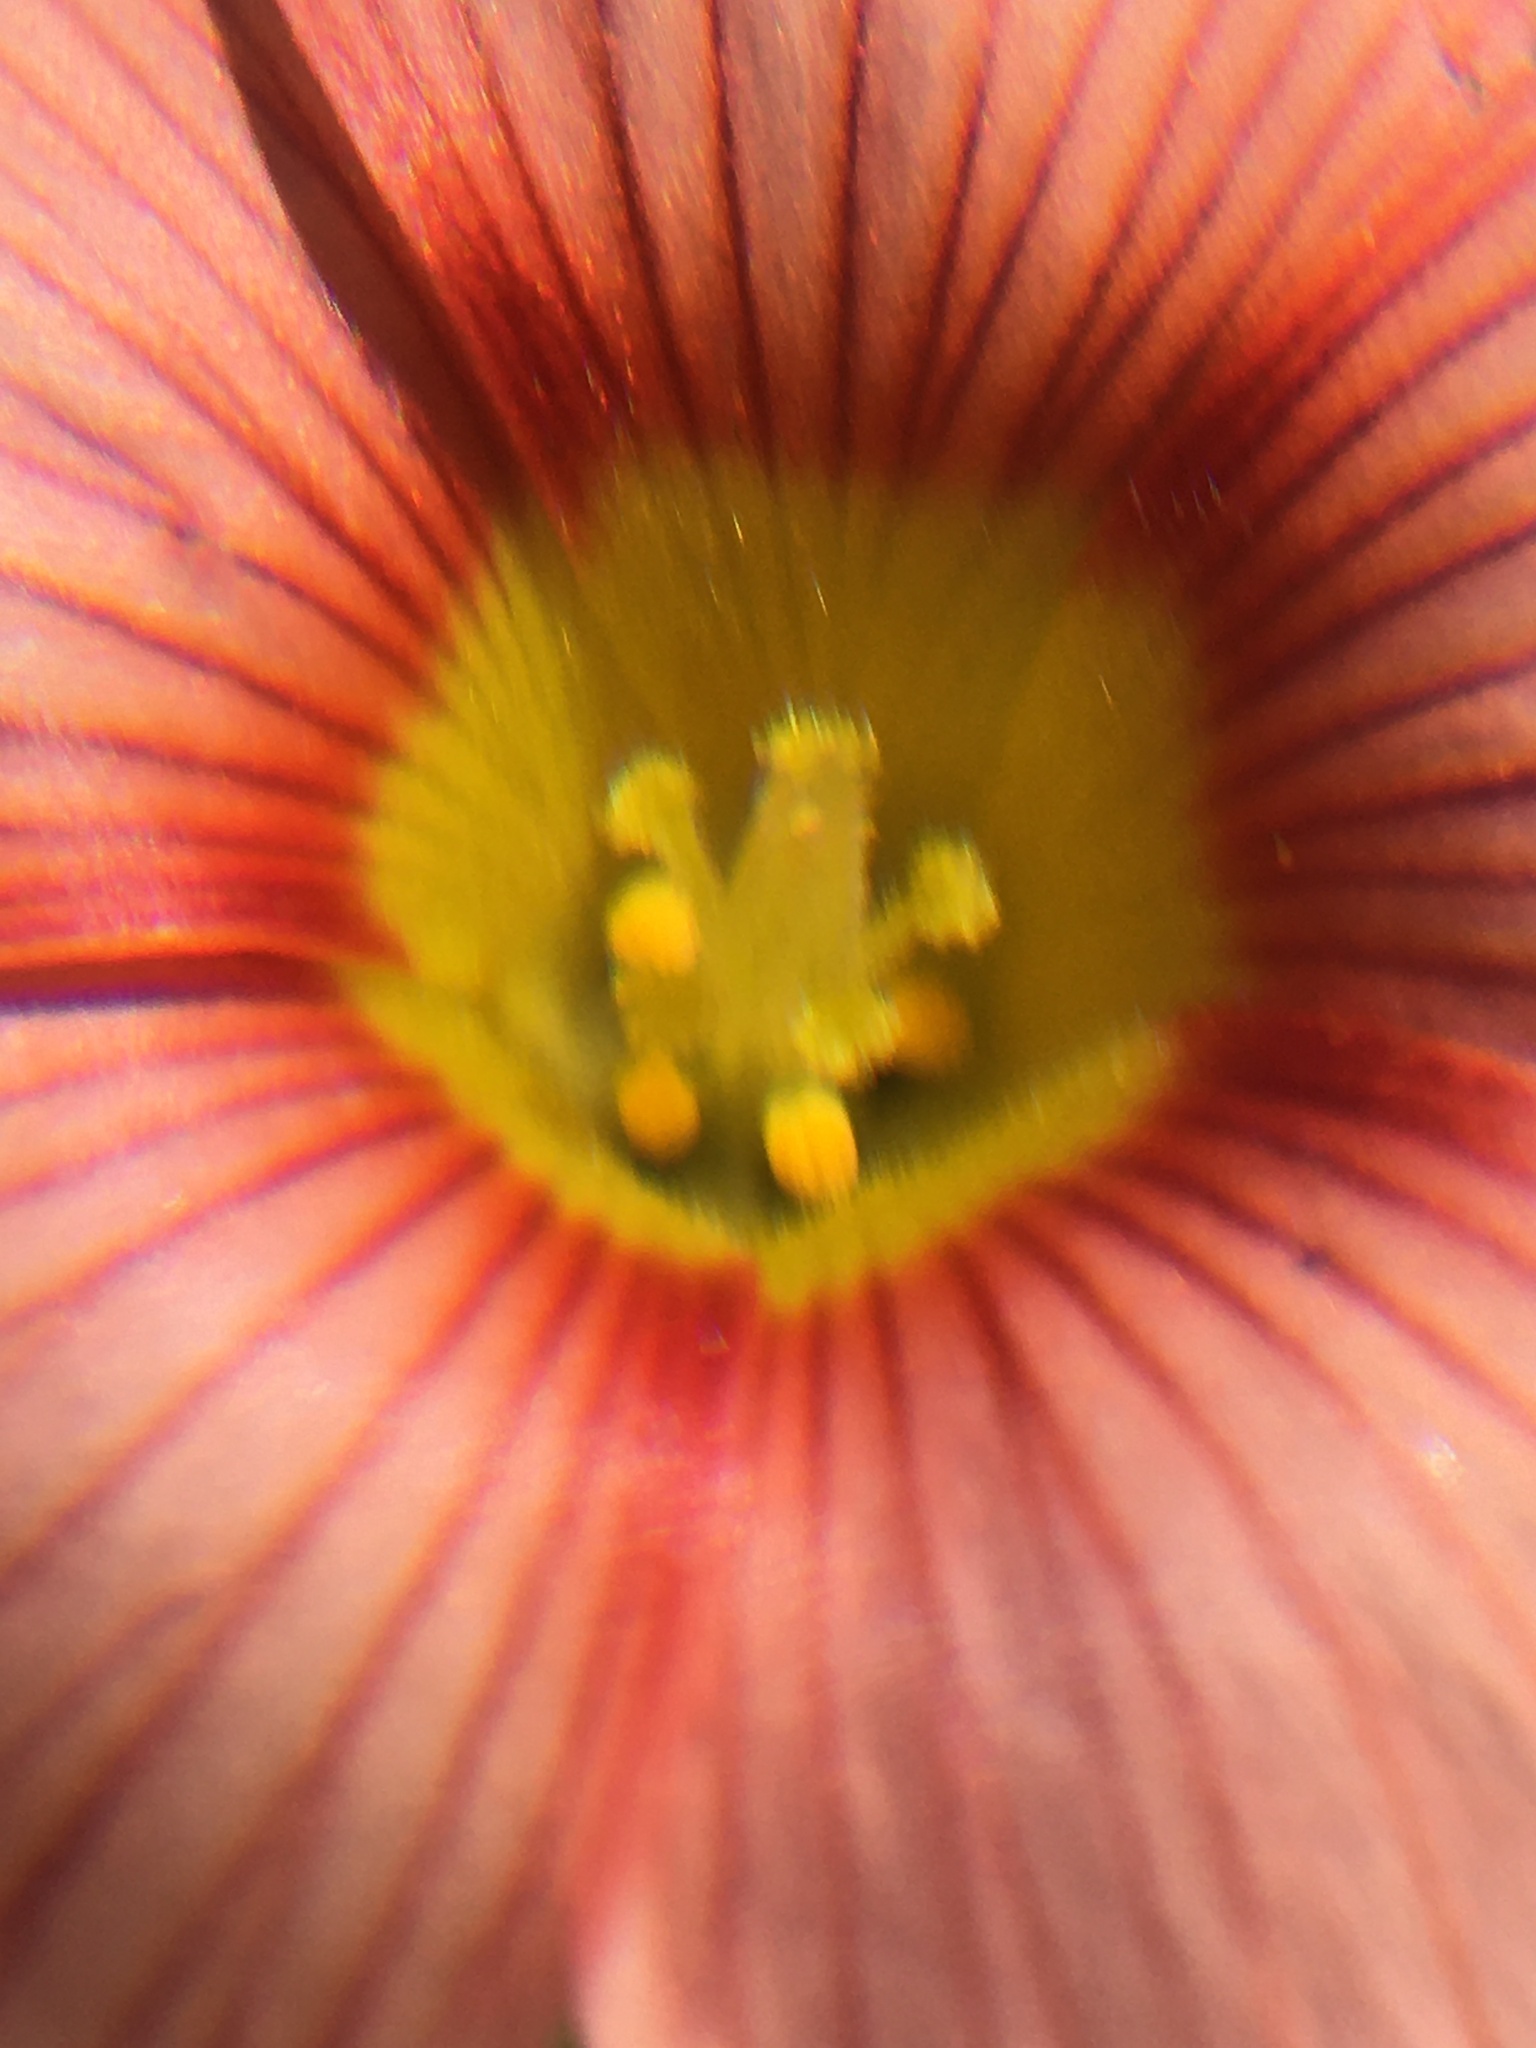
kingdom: Plantae
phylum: Tracheophyta
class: Magnoliopsida
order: Oxalidales
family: Oxalidaceae
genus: Oxalis
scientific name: Oxalis obtusa
